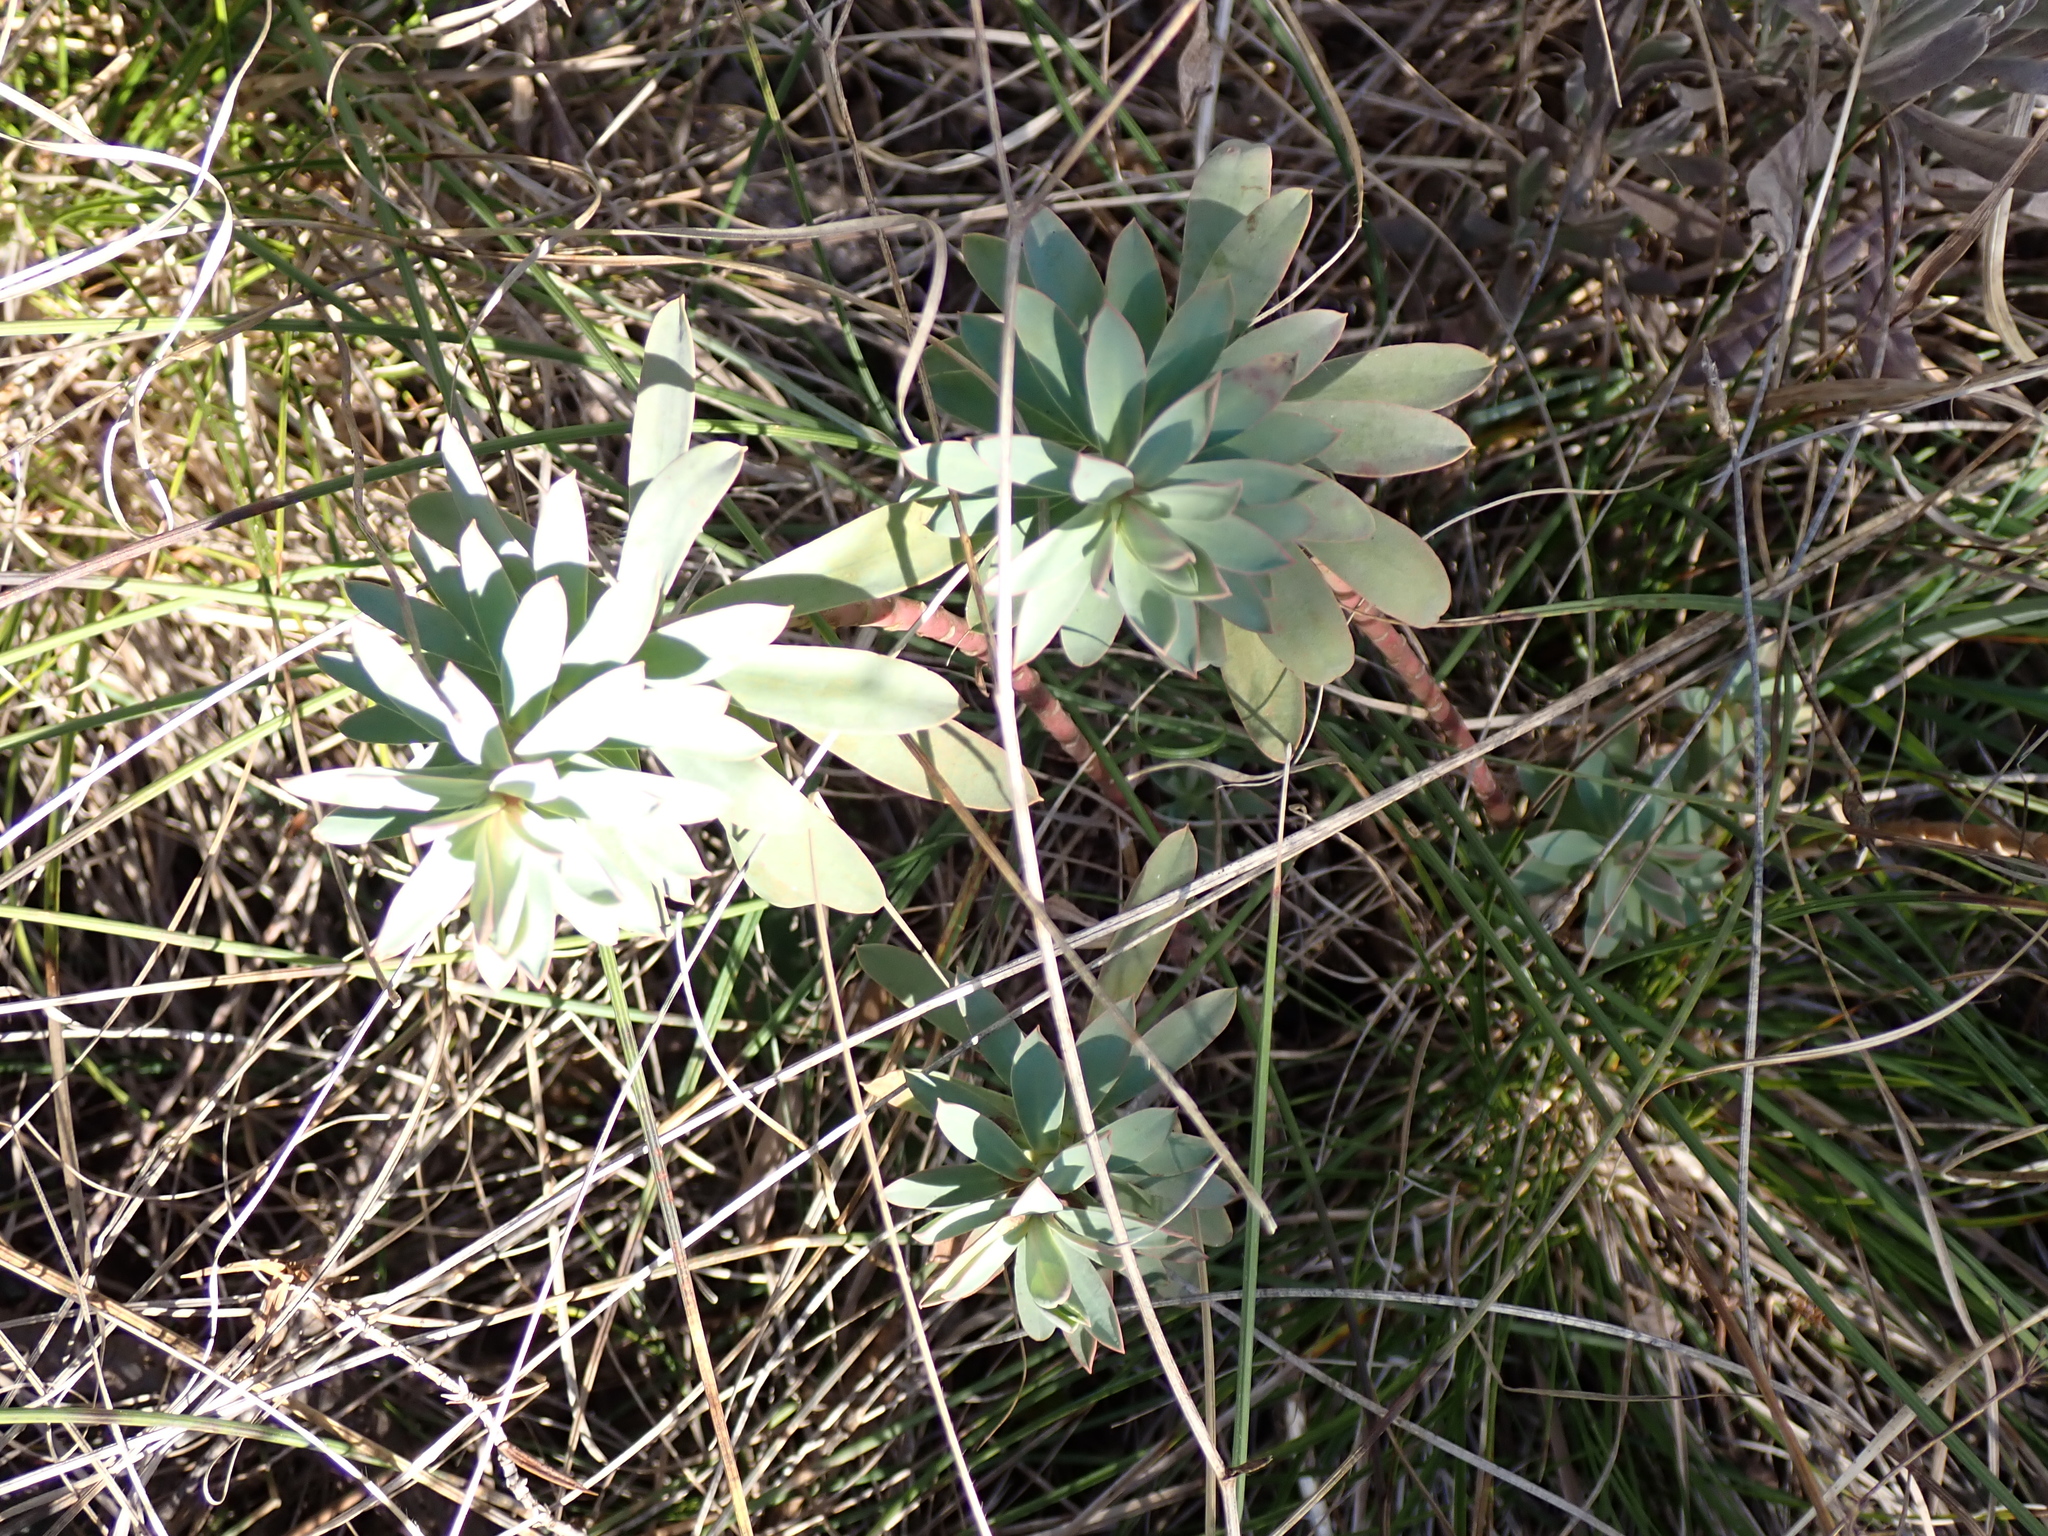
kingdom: Plantae
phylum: Tracheophyta
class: Magnoliopsida
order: Malpighiales
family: Euphorbiaceae
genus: Euphorbia
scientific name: Euphorbia nicaeensis
